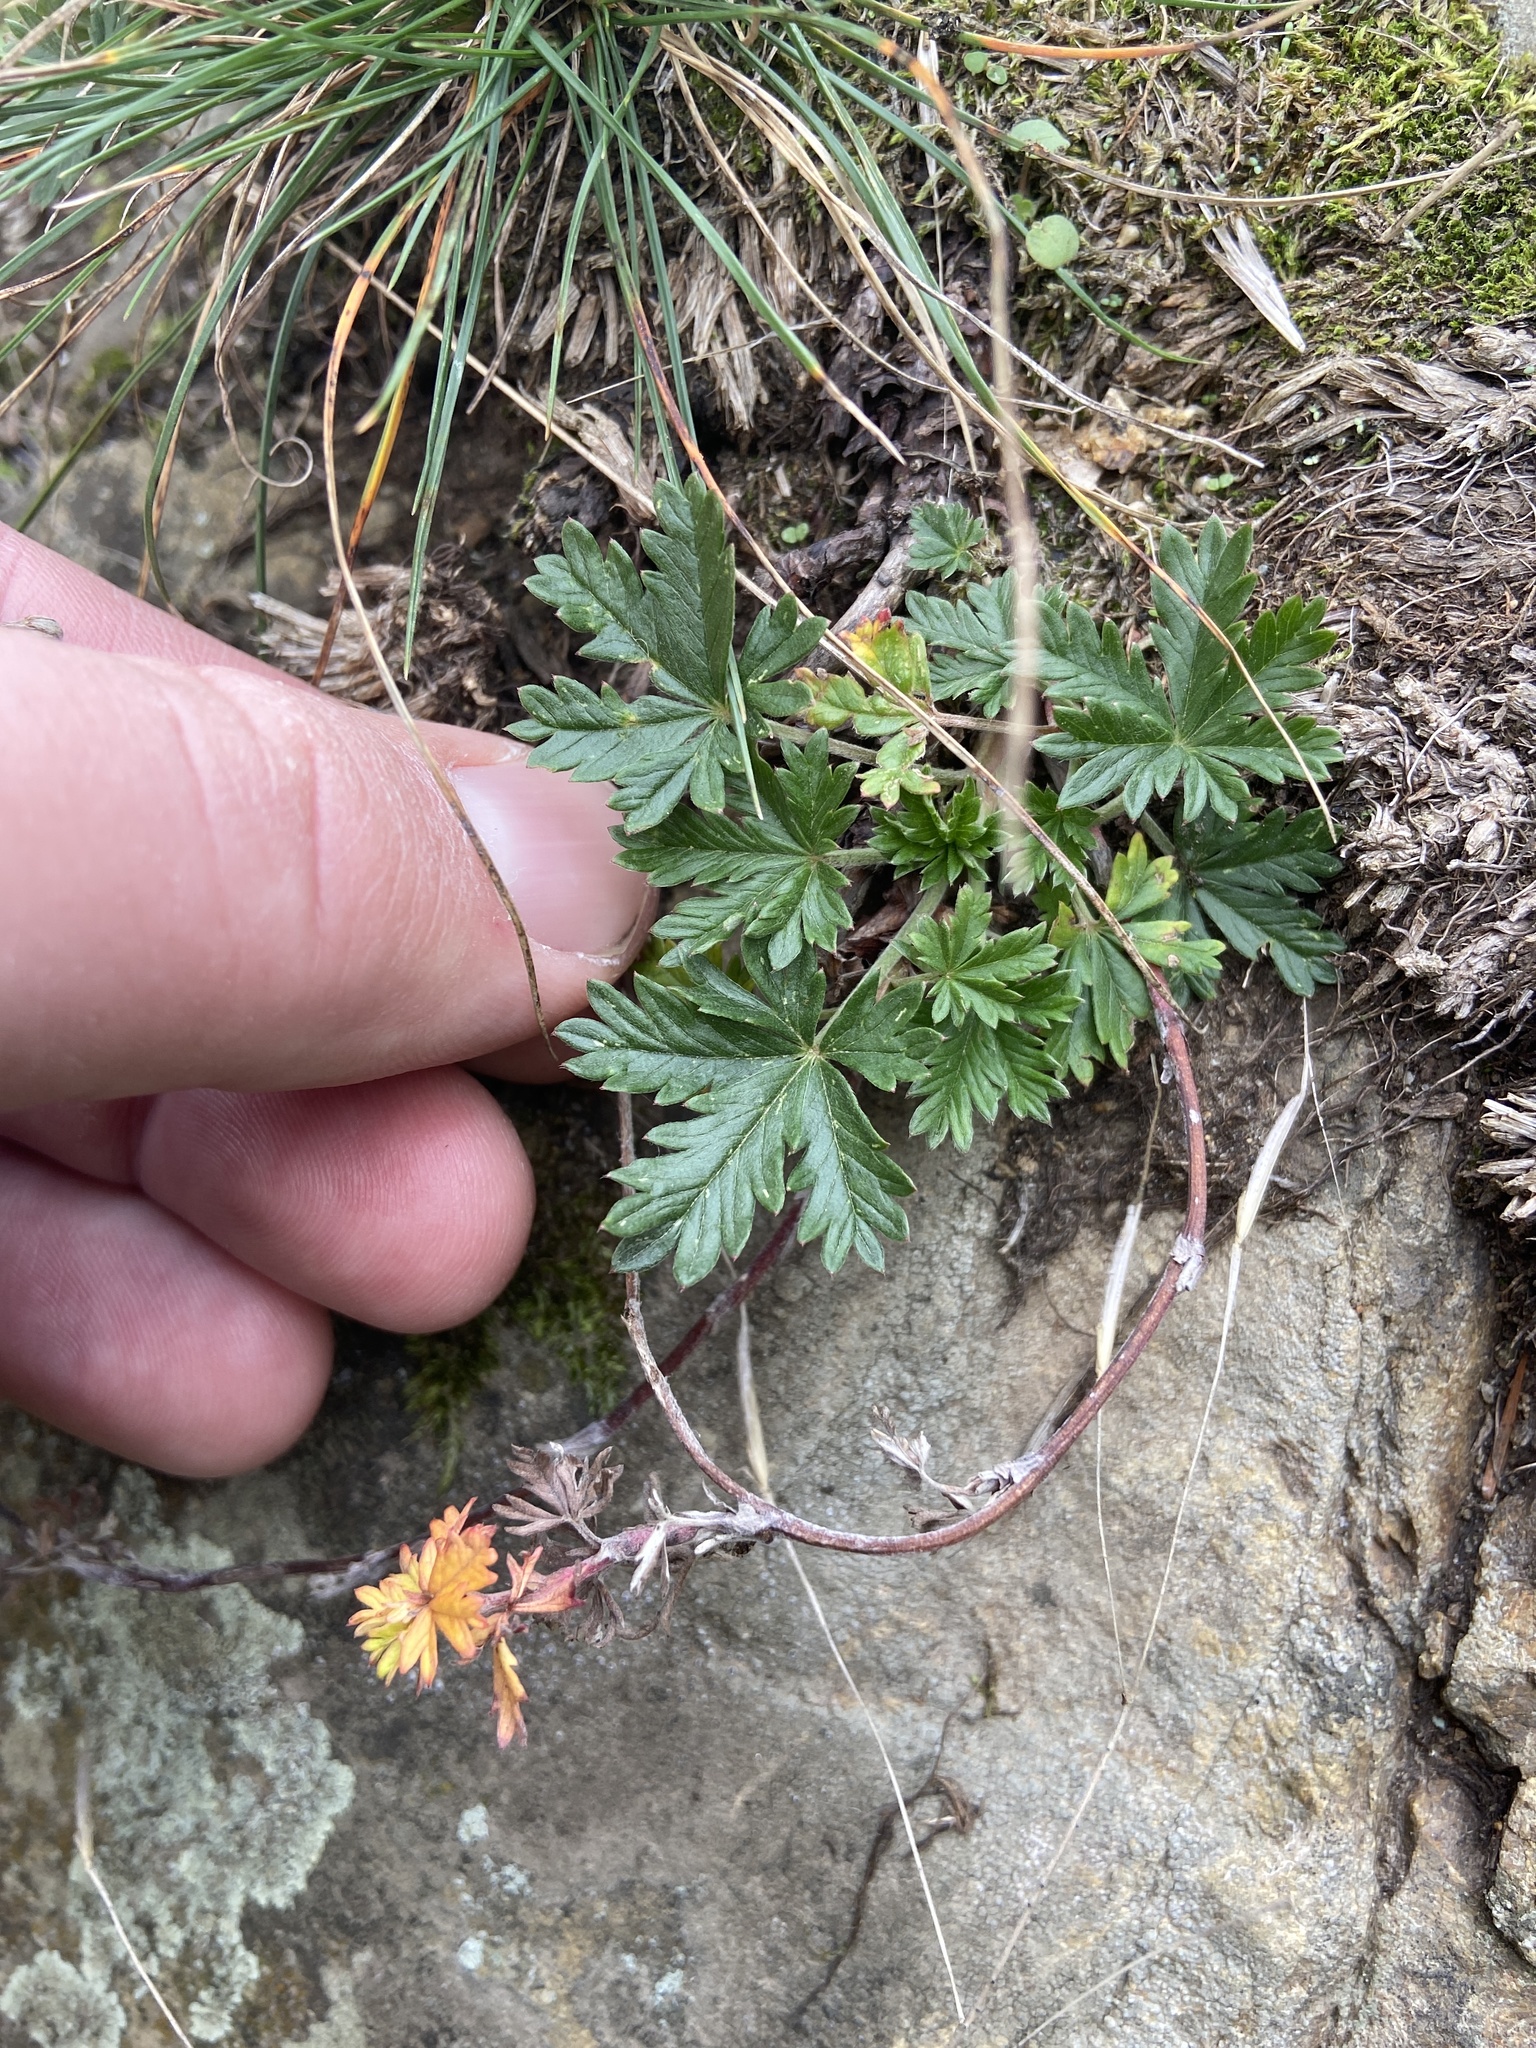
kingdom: Plantae
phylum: Tracheophyta
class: Magnoliopsida
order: Rosales
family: Rosaceae
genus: Potentilla
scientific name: Potentilla argentea
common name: Hoary cinquefoil
